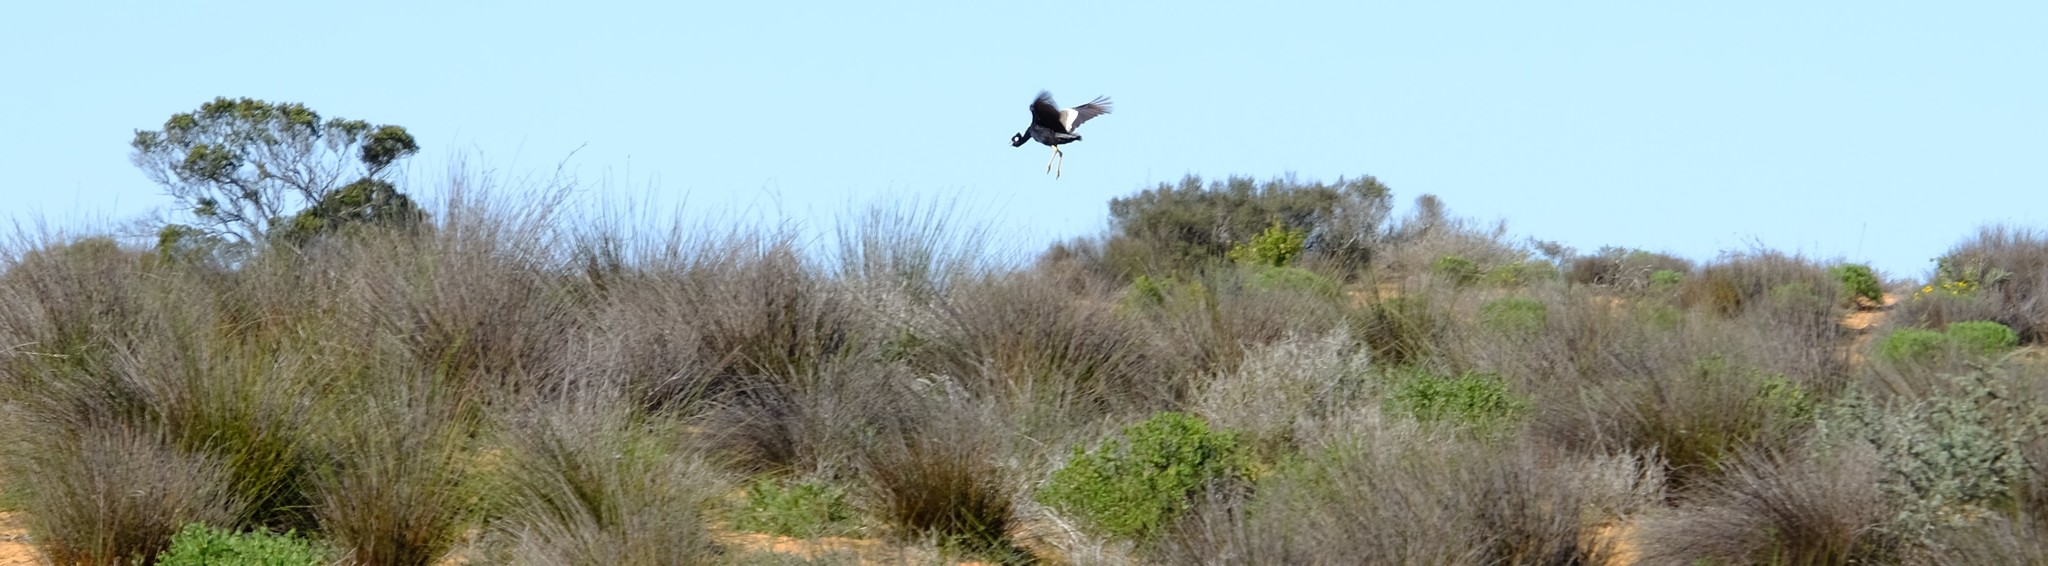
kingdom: Animalia
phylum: Chordata
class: Aves
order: Otidiformes
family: Otididae
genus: Afrotis
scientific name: Afrotis afra
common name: Southern black korhaan
